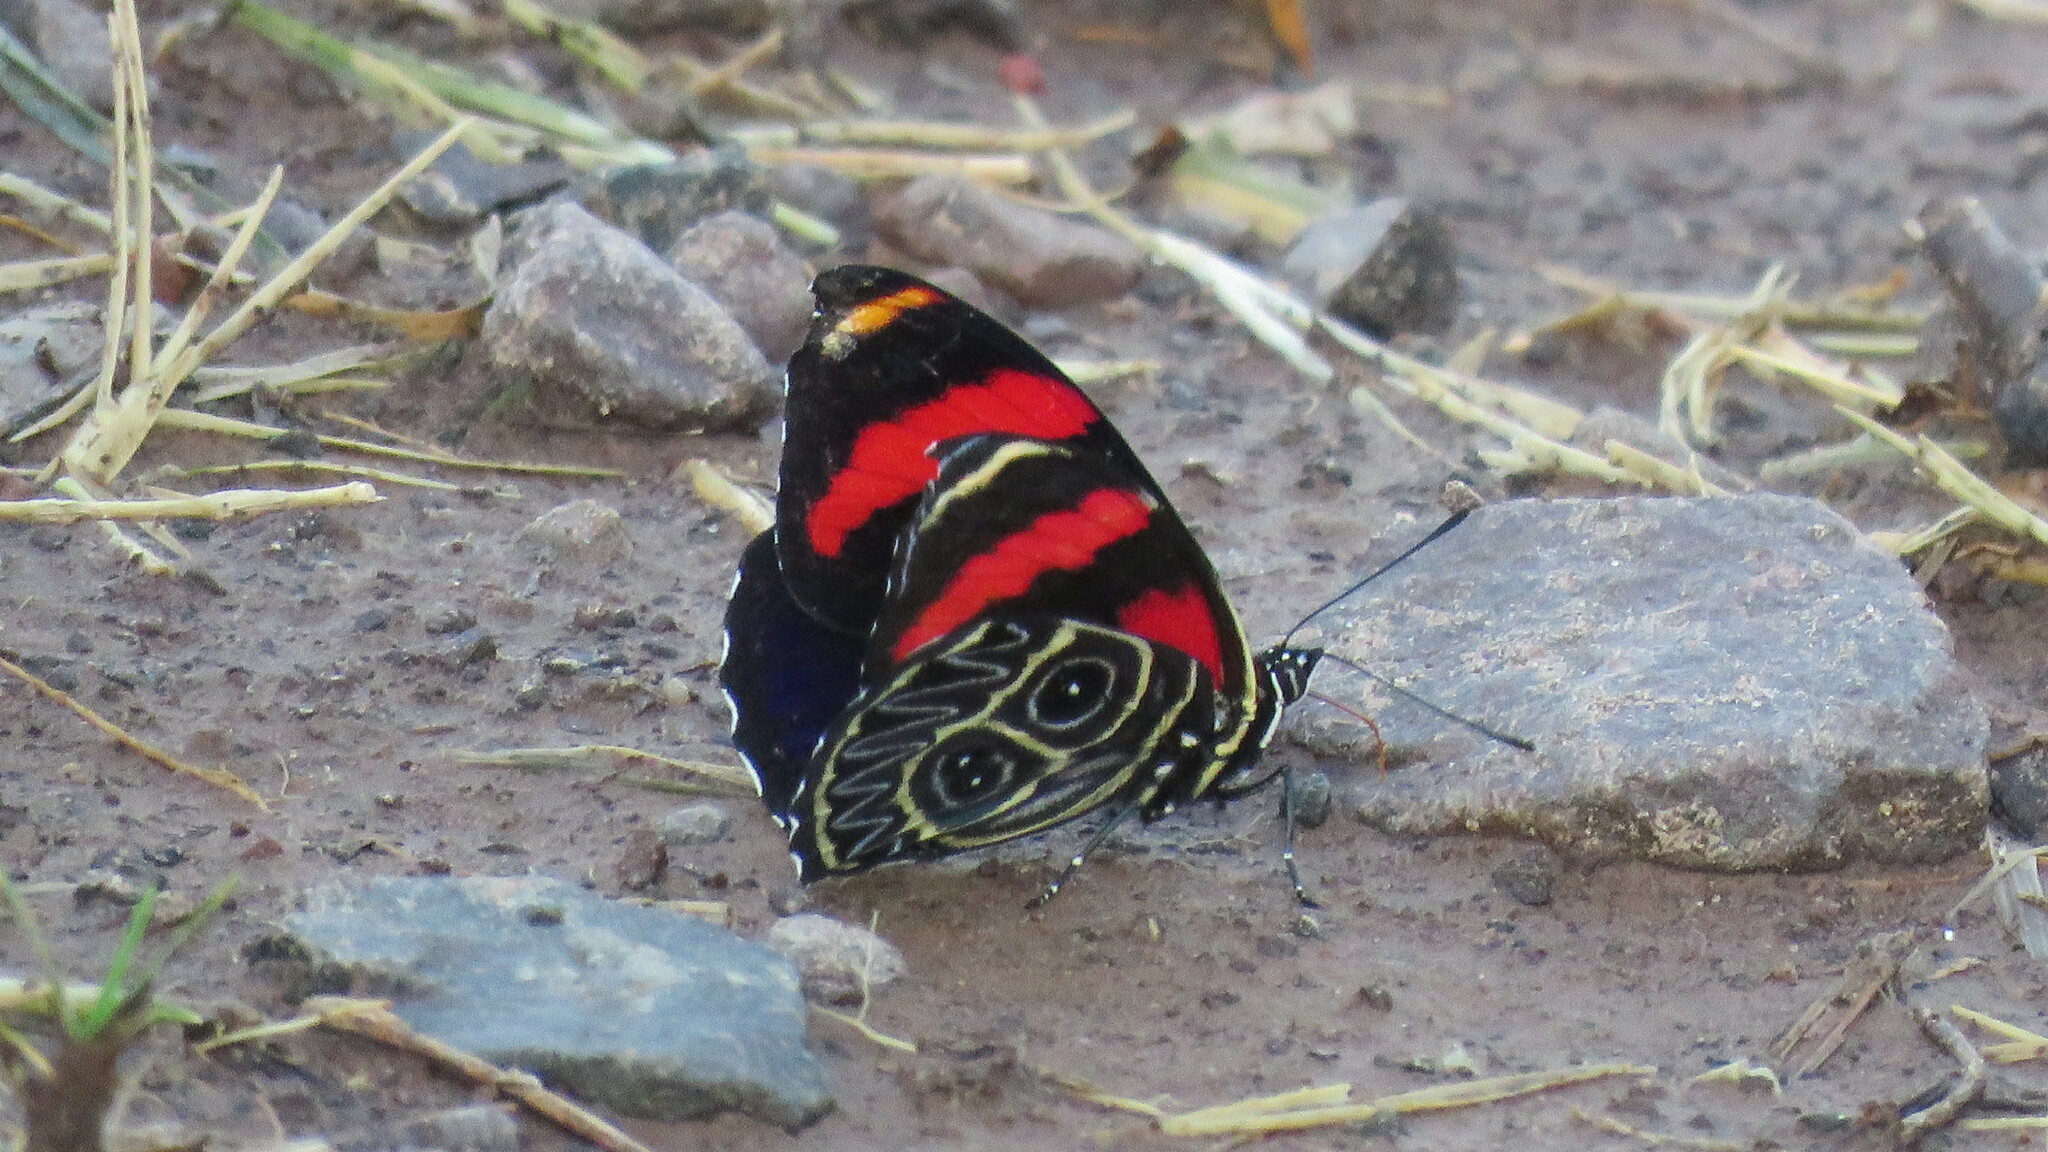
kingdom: Animalia
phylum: Arthropoda
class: Insecta
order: Lepidoptera
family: Nymphalidae
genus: Catagramma
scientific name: Catagramma Callicore sorana
